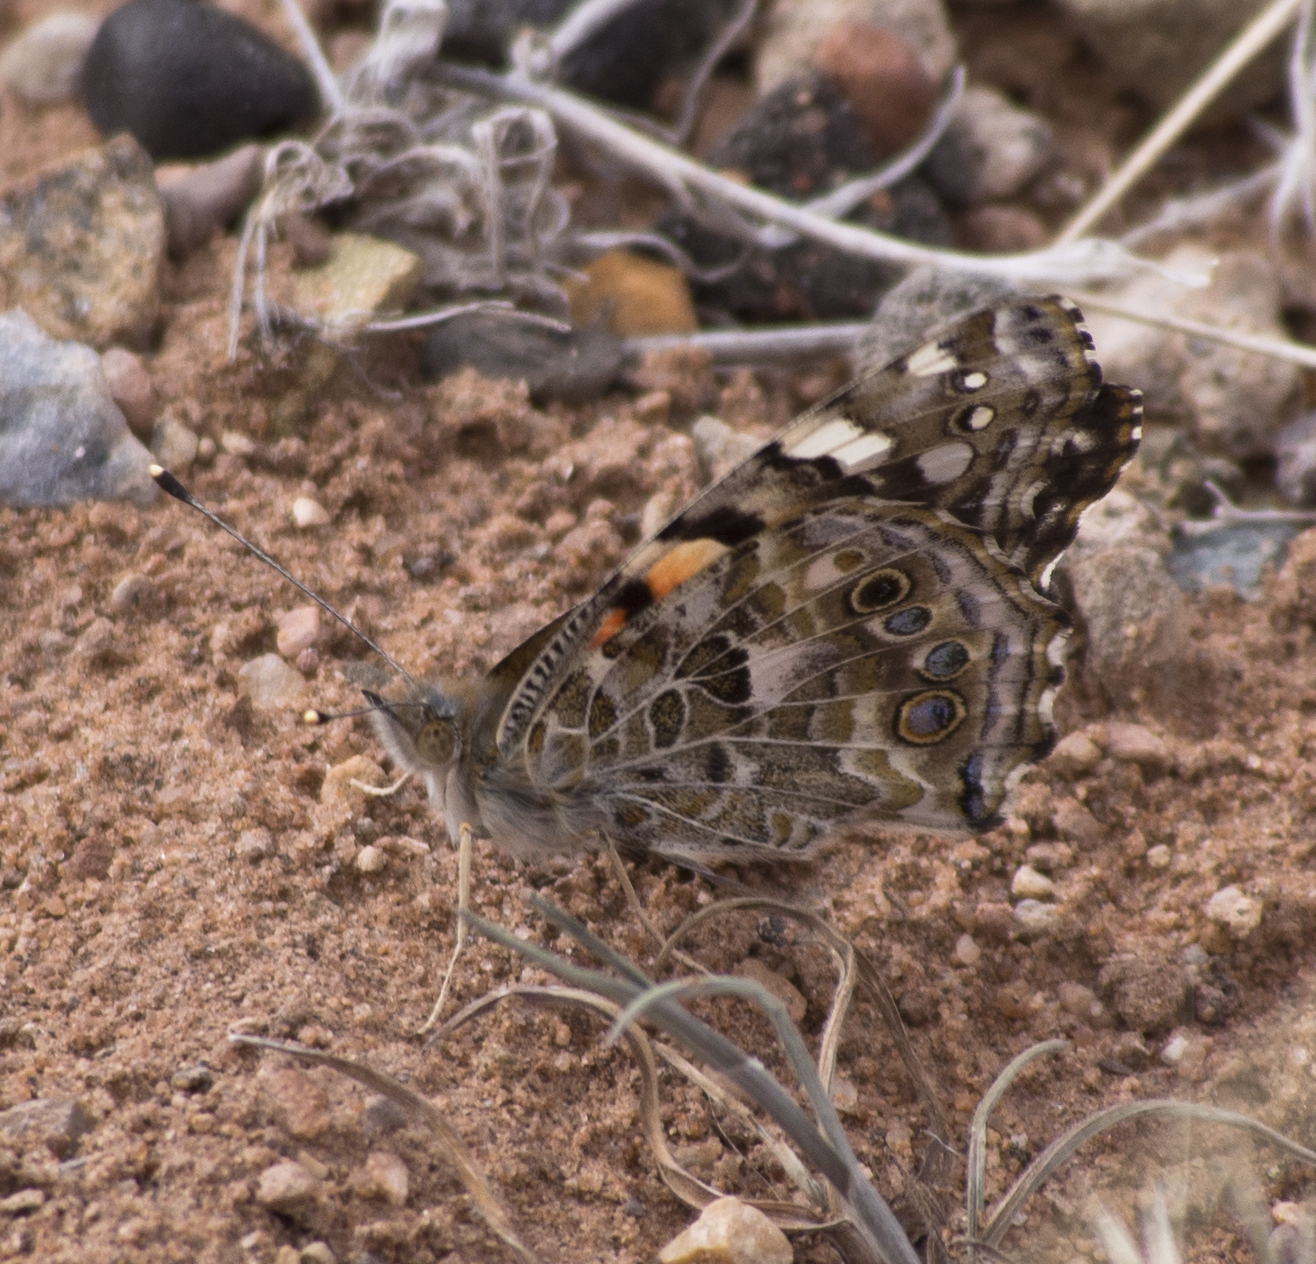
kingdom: Animalia
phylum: Arthropoda
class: Insecta
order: Lepidoptera
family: Nymphalidae
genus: Vanessa
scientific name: Vanessa cardui
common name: Painted lady
